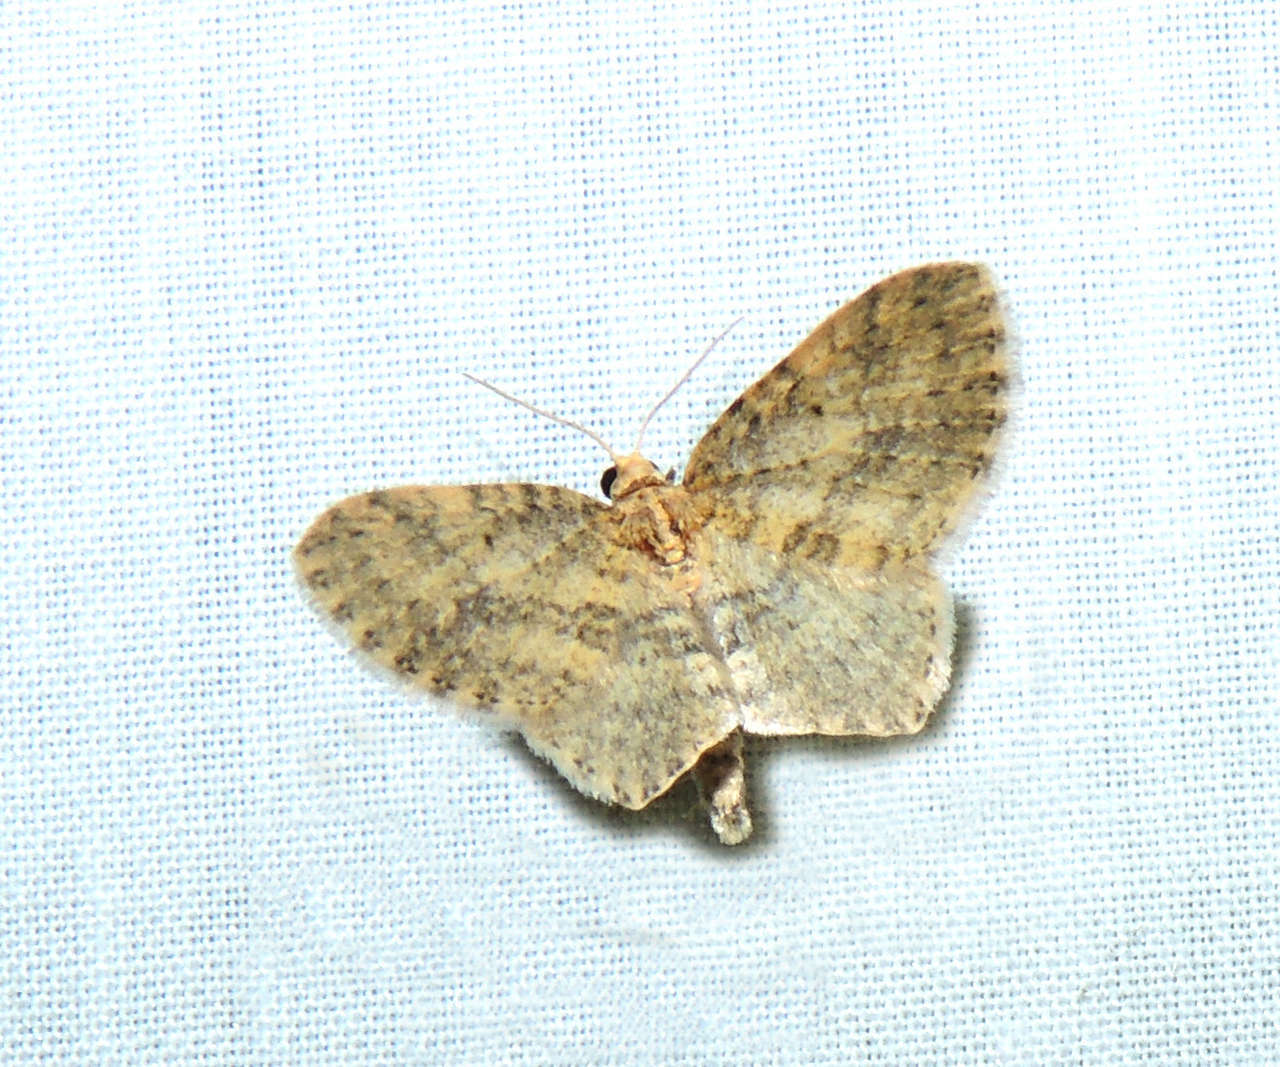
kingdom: Animalia
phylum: Arthropoda
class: Insecta
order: Lepidoptera
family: Geometridae
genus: Poecilasthena
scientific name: Poecilasthena scoliota
